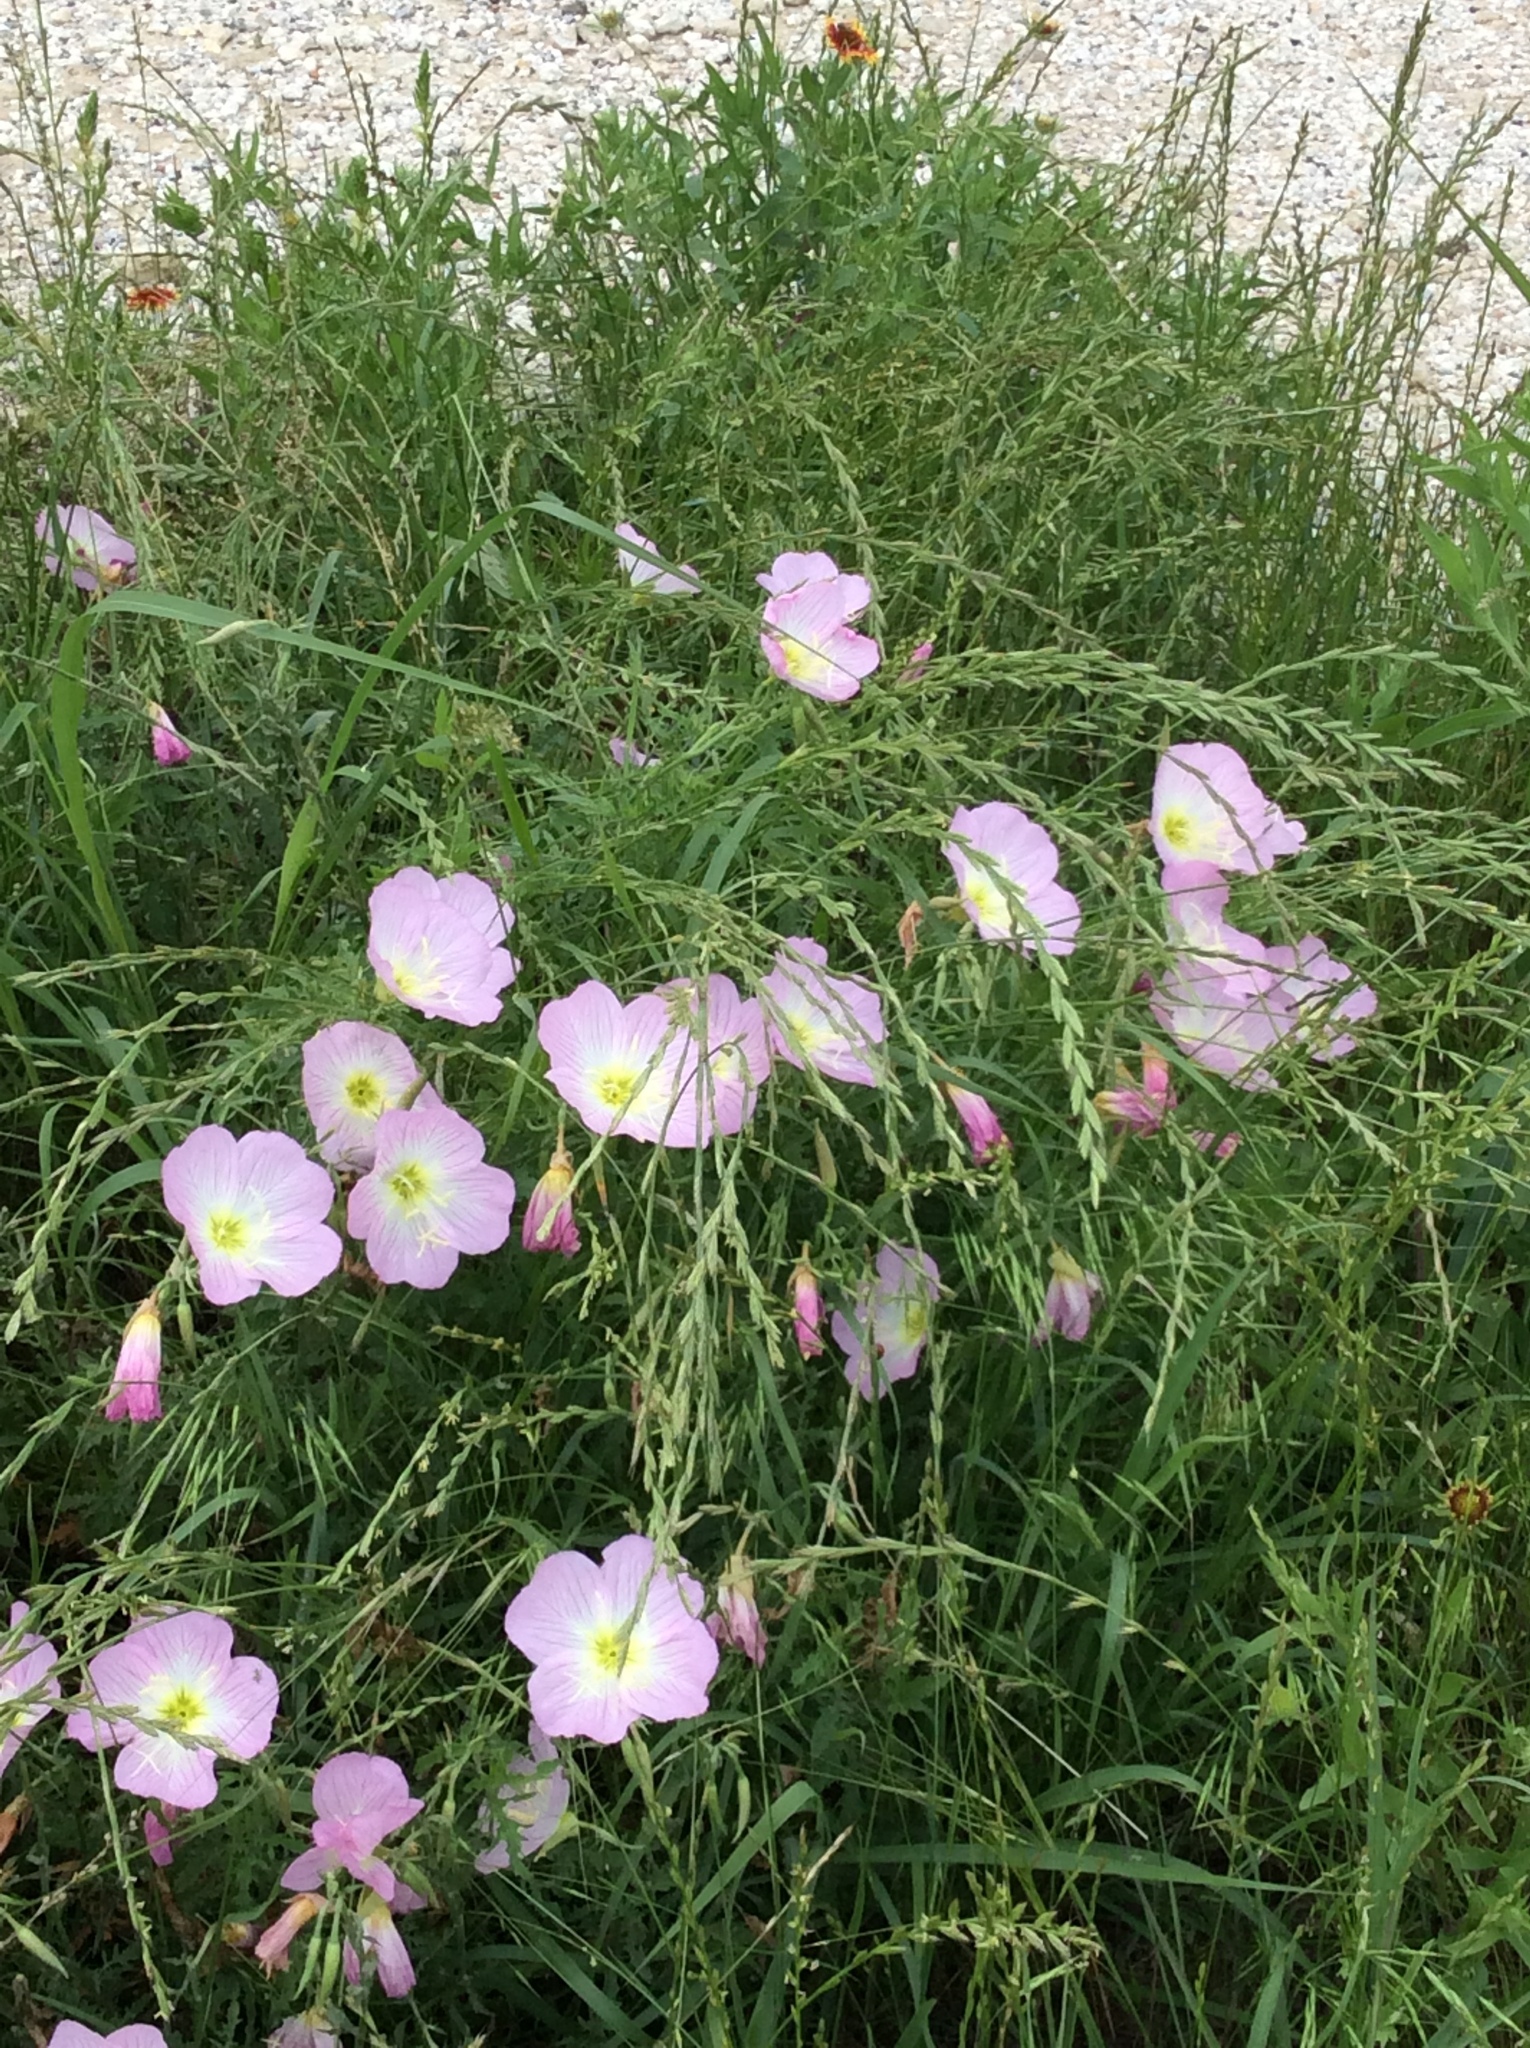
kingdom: Plantae
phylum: Tracheophyta
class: Magnoliopsida
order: Myrtales
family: Onagraceae
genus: Oenothera
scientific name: Oenothera speciosa
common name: White evening-primrose
